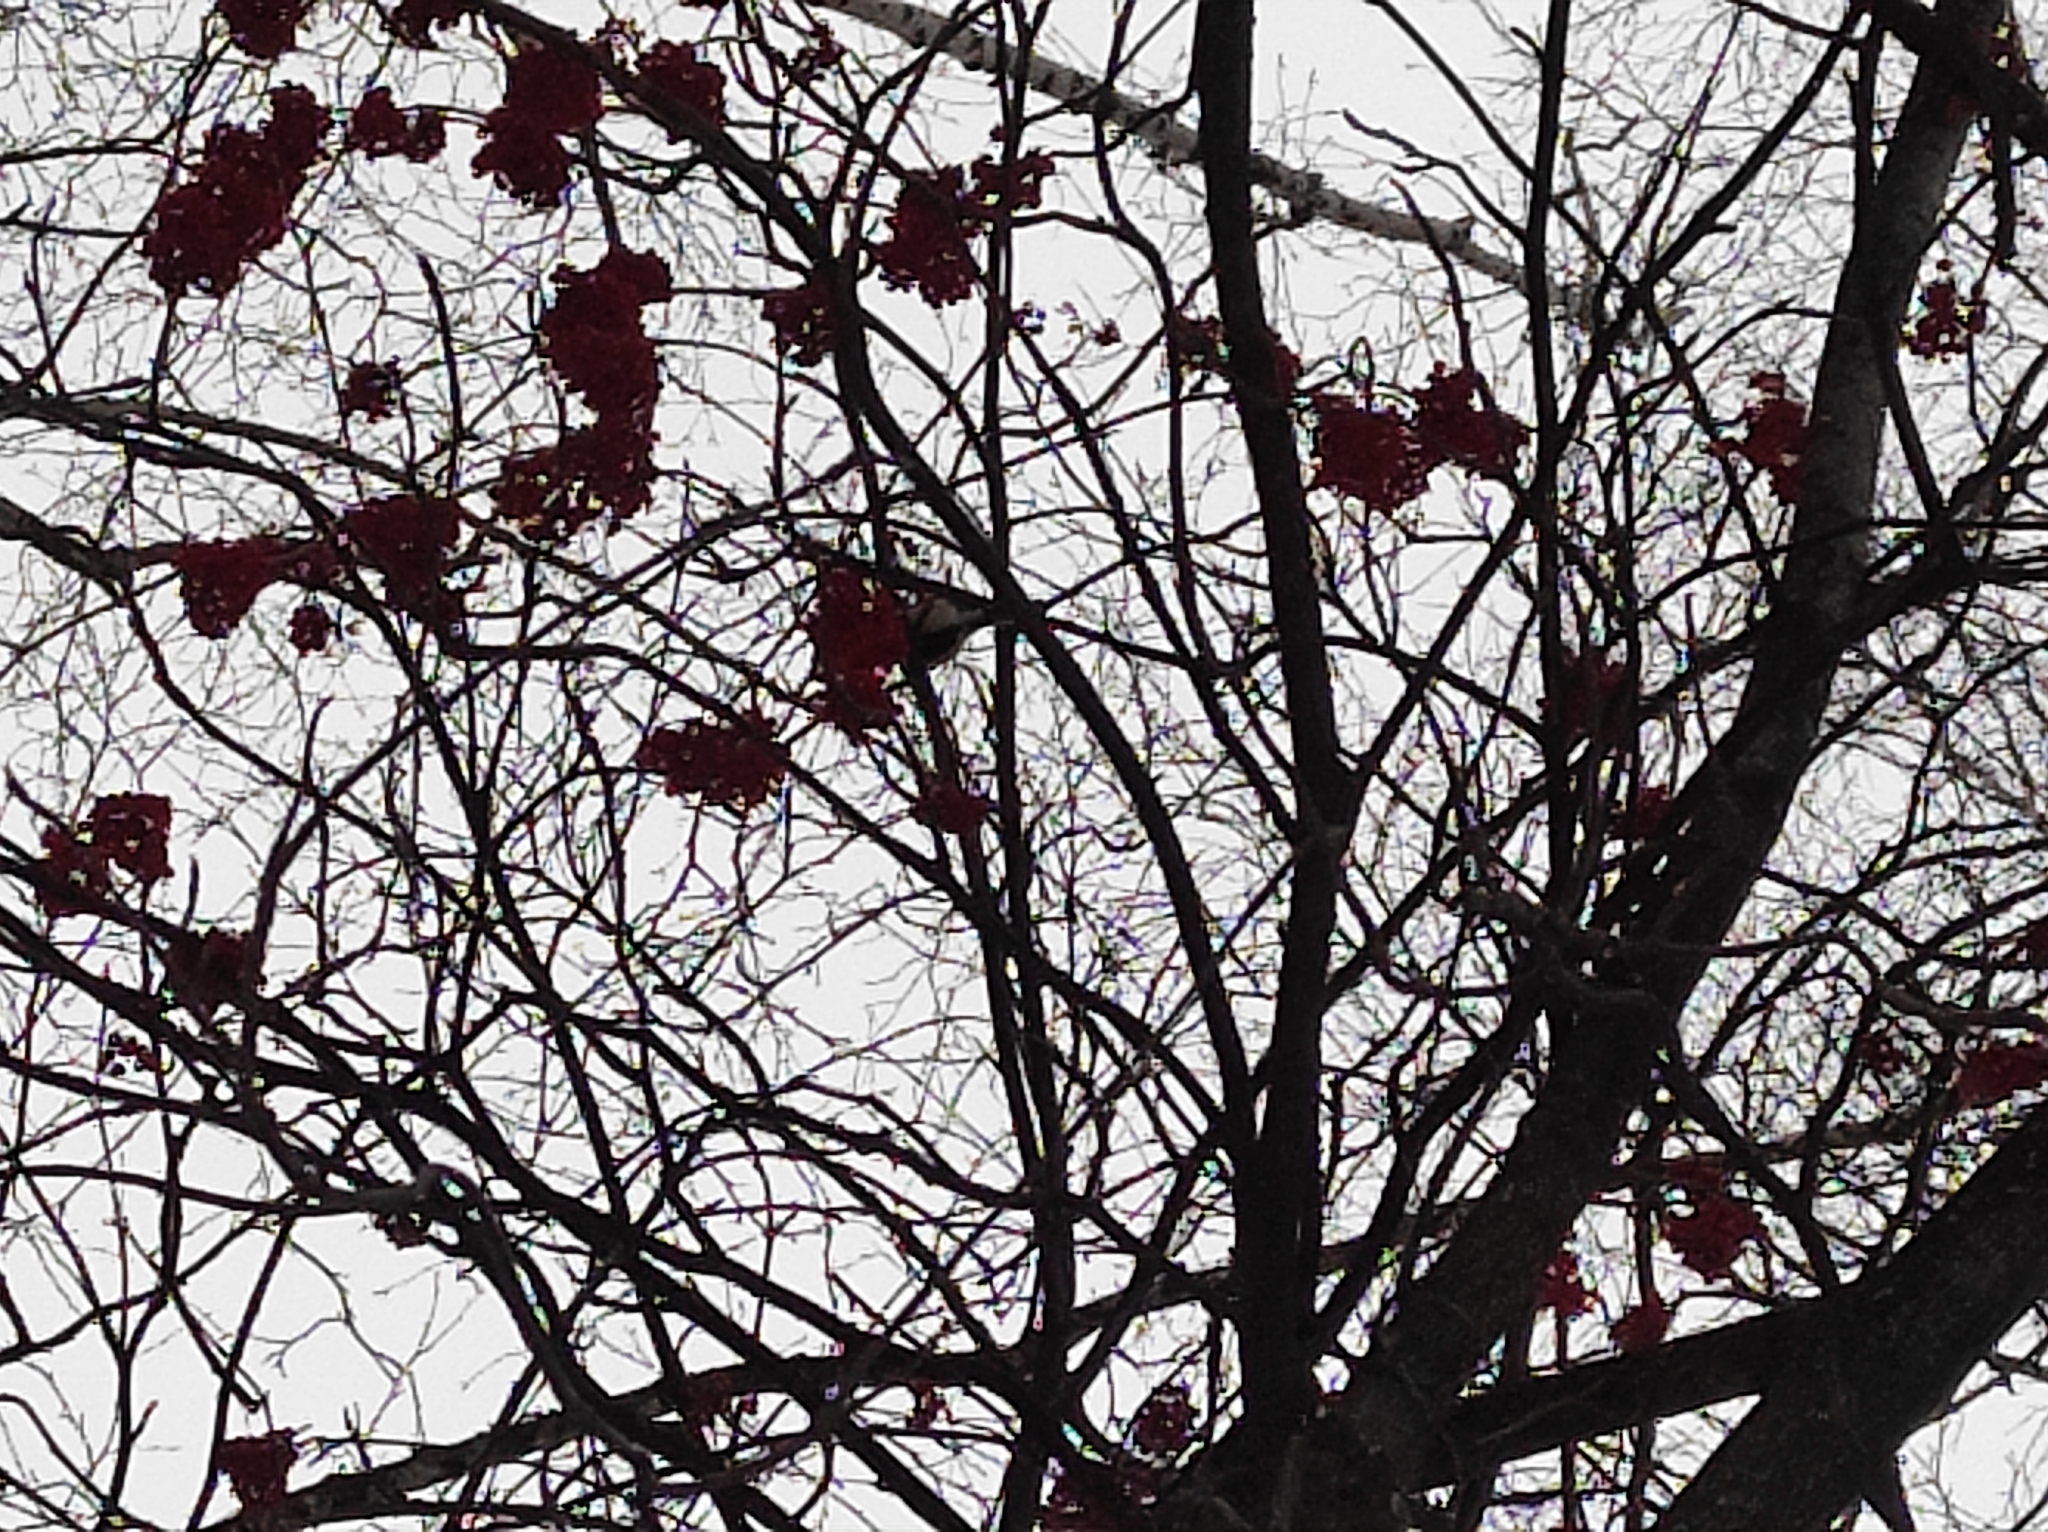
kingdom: Animalia
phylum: Chordata
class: Aves
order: Passeriformes
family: Paridae
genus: Parus
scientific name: Parus major
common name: Great tit
